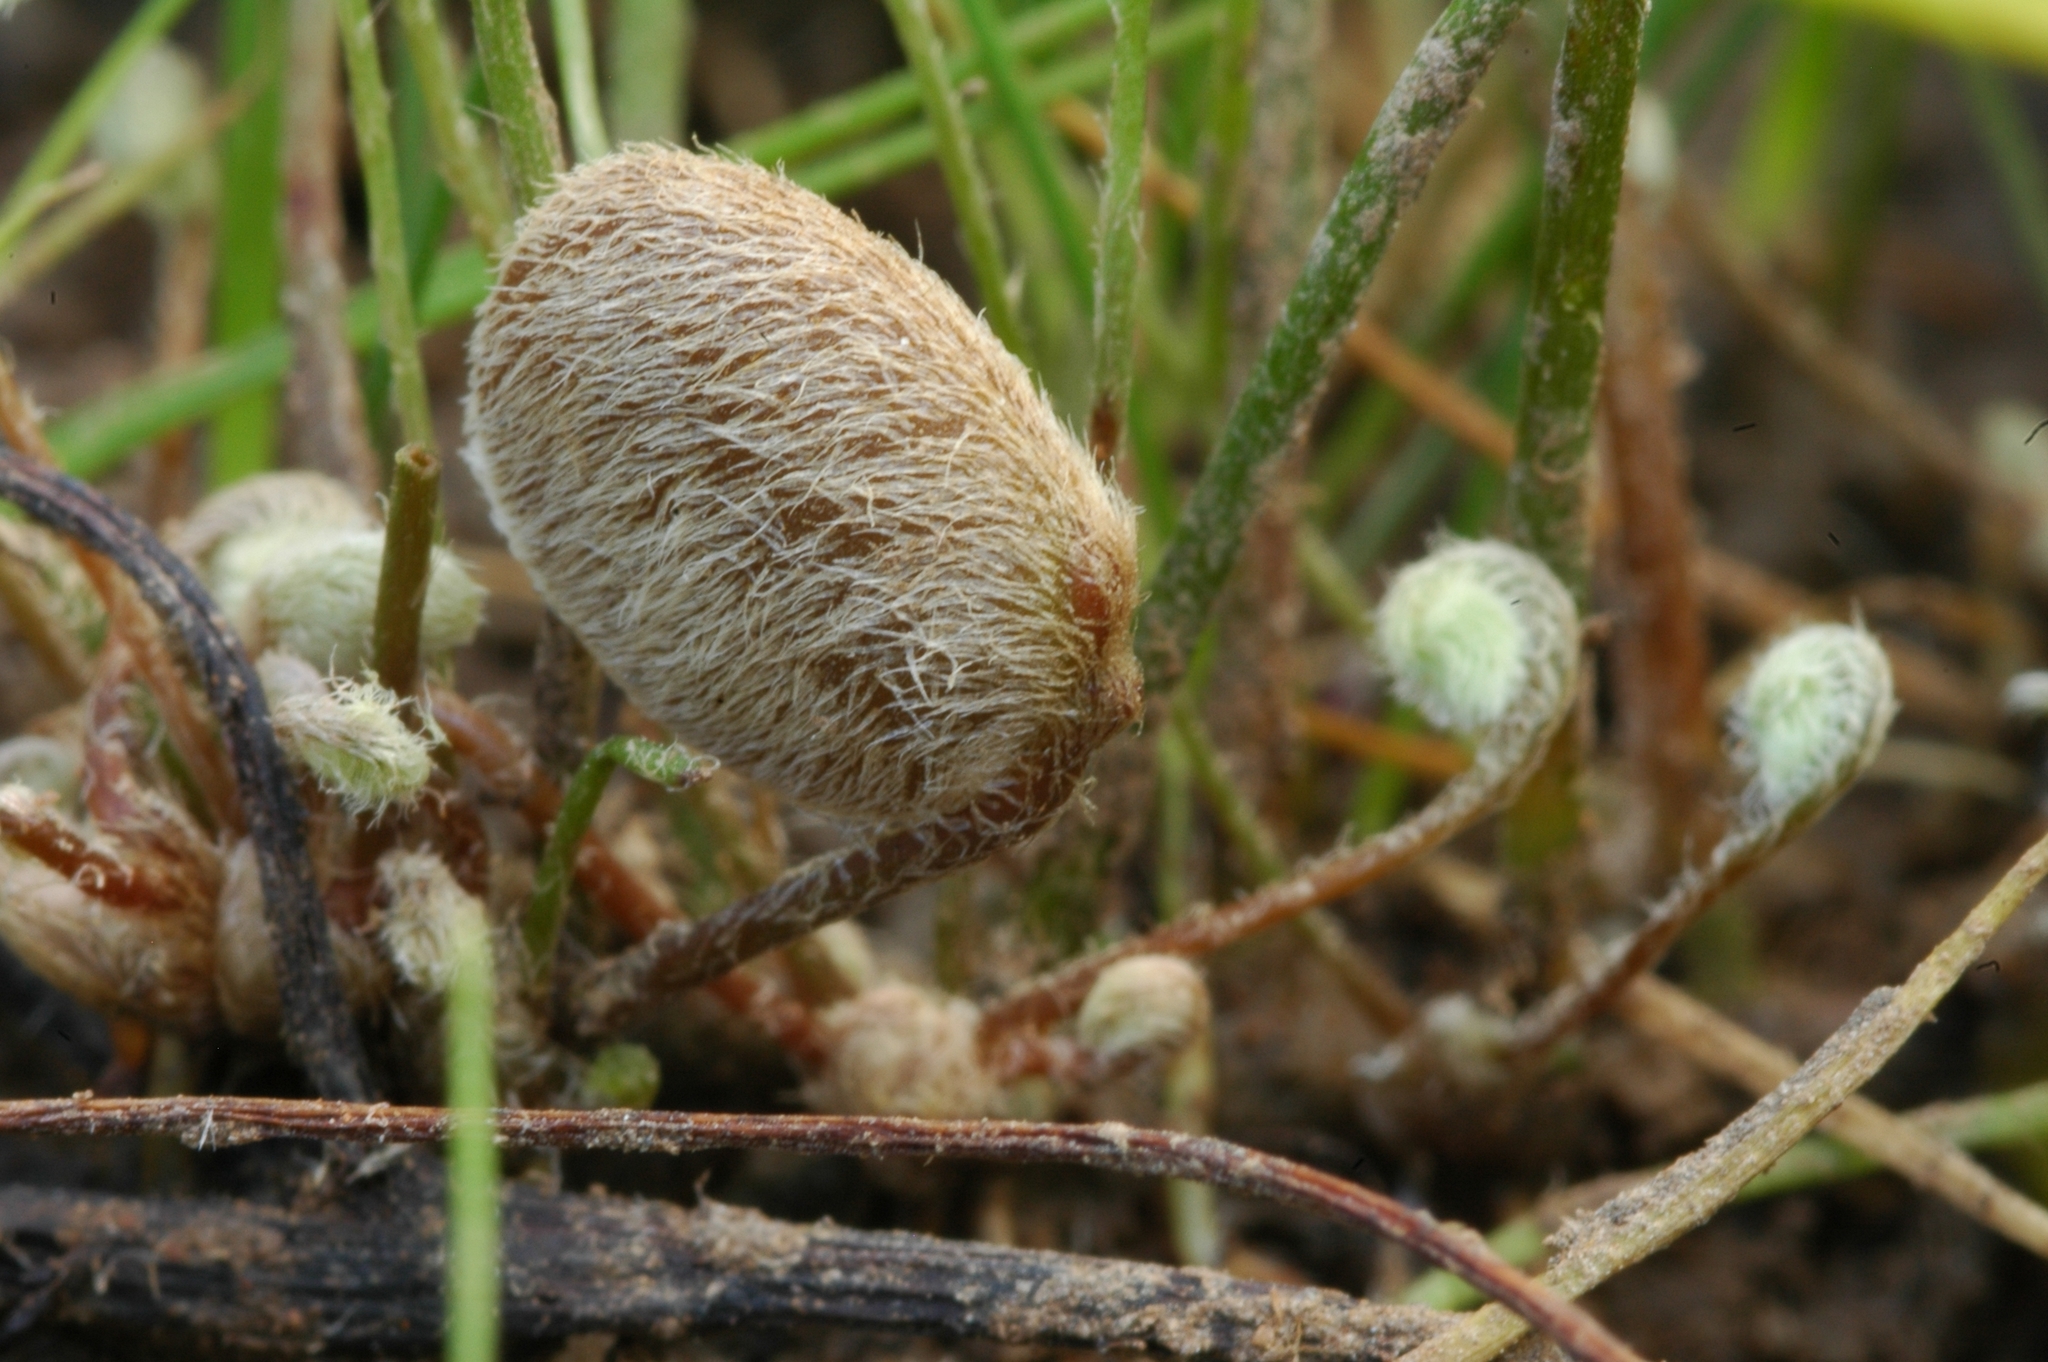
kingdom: Plantae
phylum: Tracheophyta
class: Polypodiopsida
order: Salviniales
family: Marsileaceae
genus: Marsilea
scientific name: Marsilea oligospora
